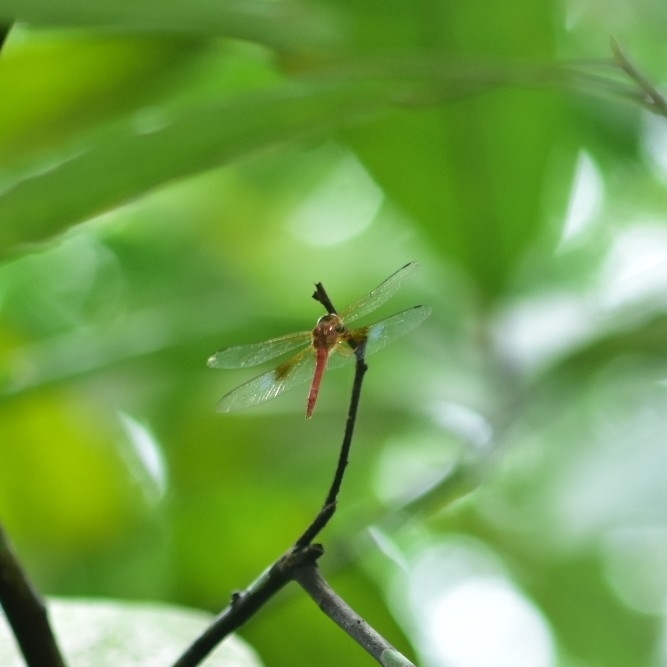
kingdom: Animalia
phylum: Arthropoda
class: Insecta
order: Odonata
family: Libellulidae
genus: Tholymis
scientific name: Tholymis tillarga
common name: Coral-tailed cloud wing
